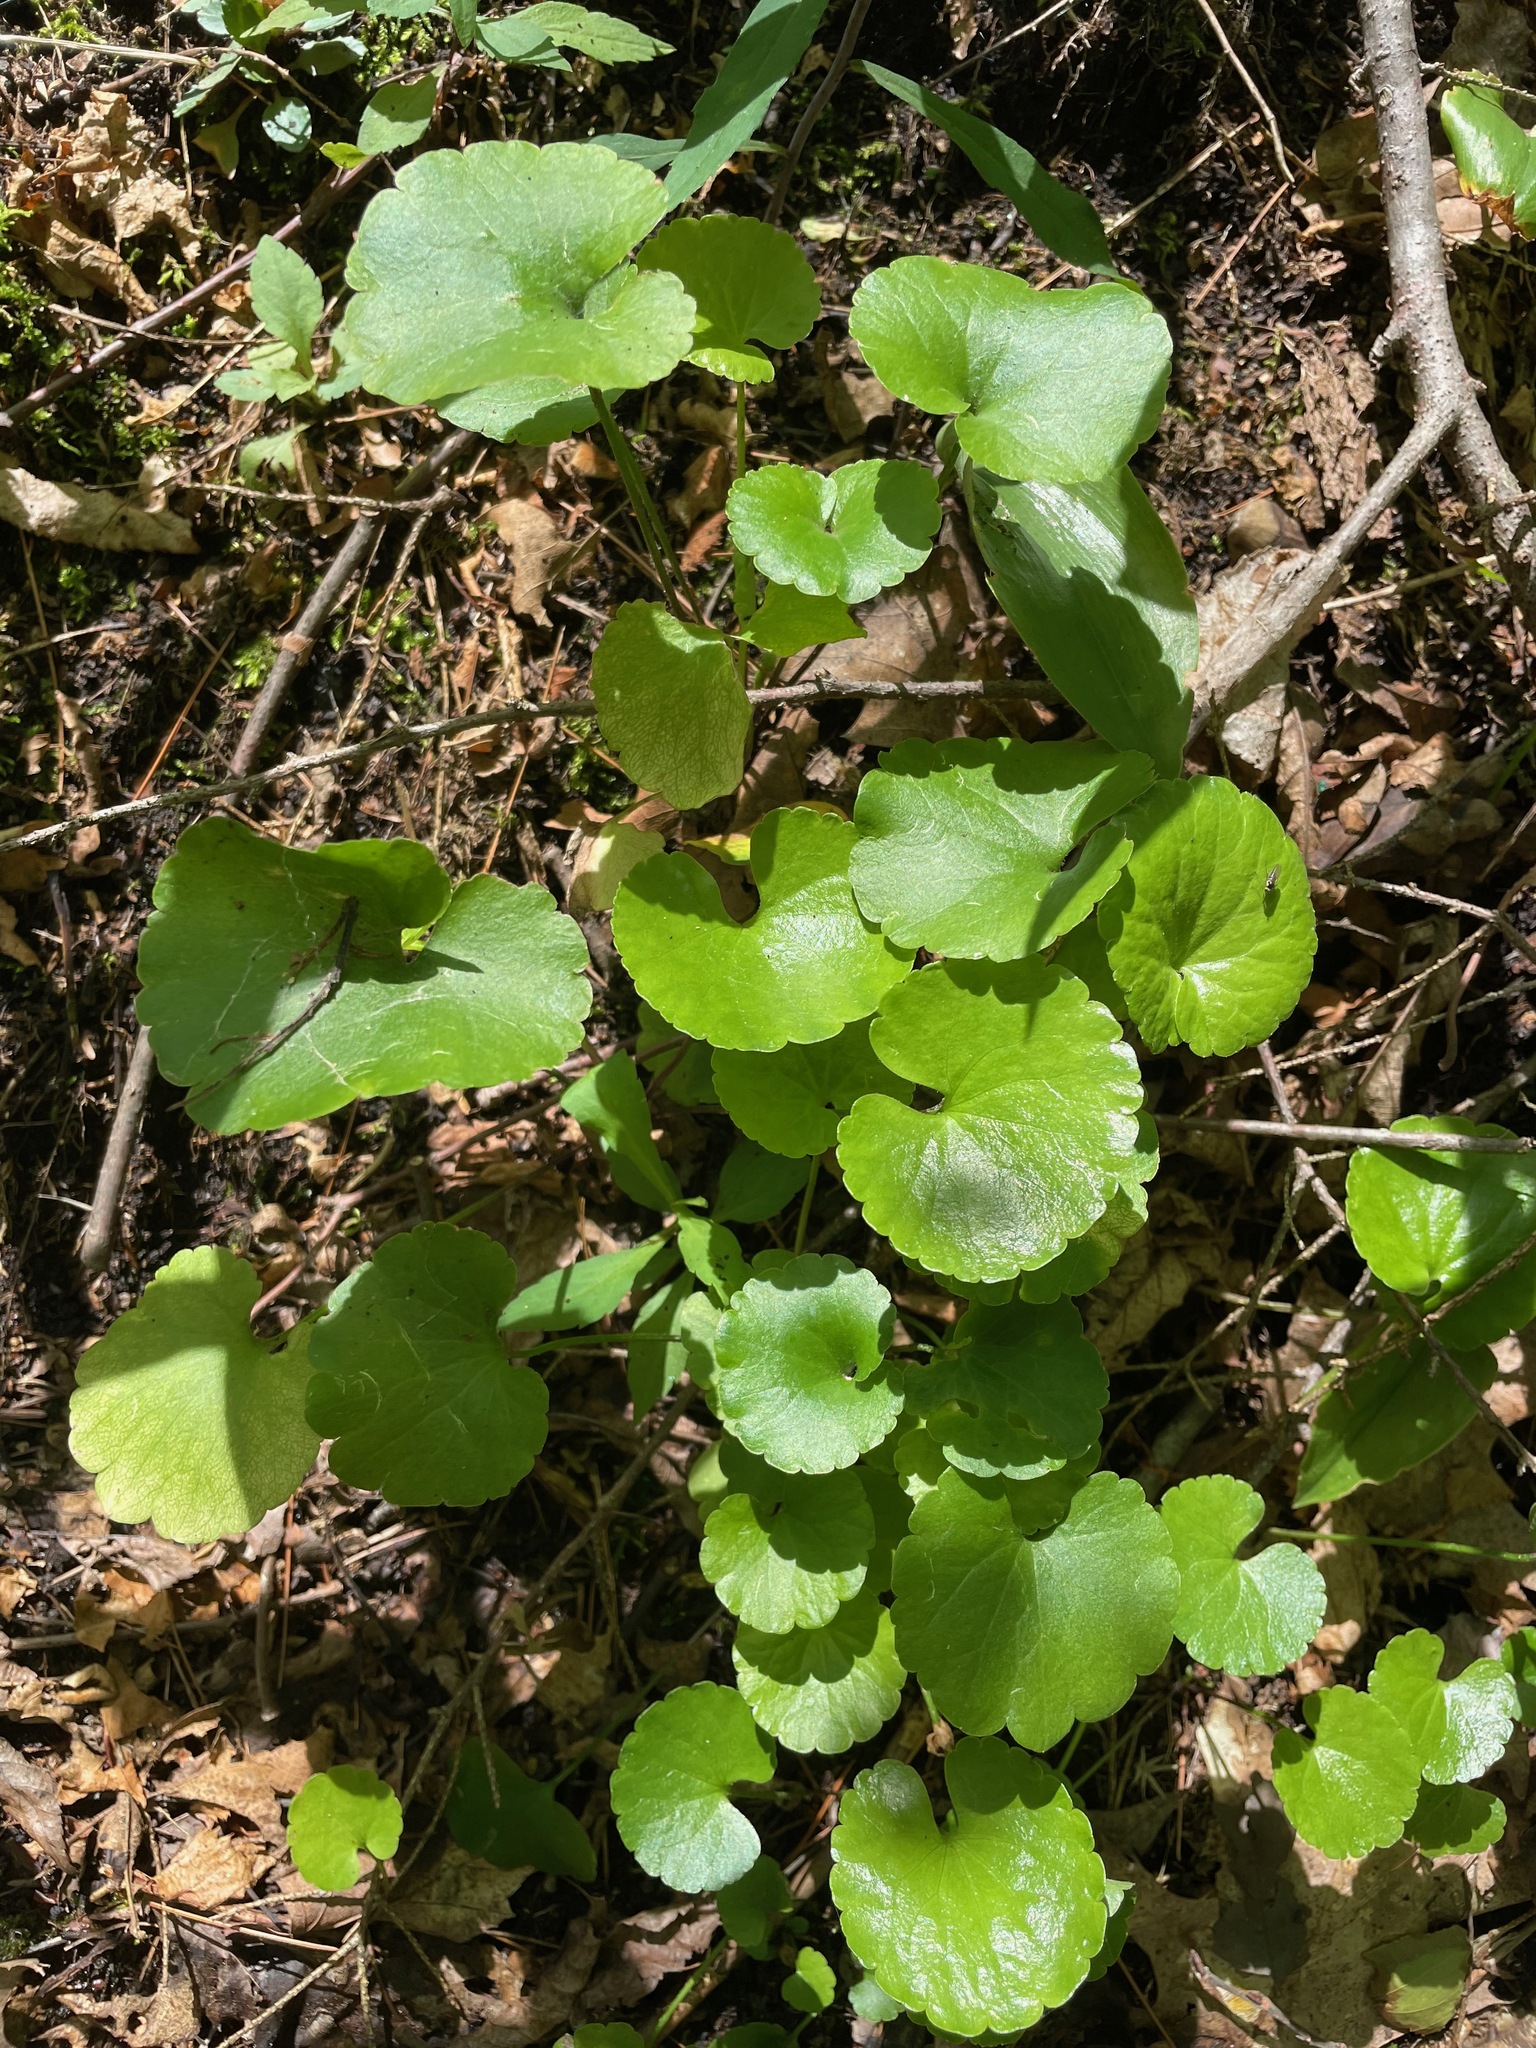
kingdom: Plantae
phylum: Tracheophyta
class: Magnoliopsida
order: Apiales
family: Araliaceae
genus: Hydrocotyle
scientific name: Hydrocotyle americana
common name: American water-pennywort
